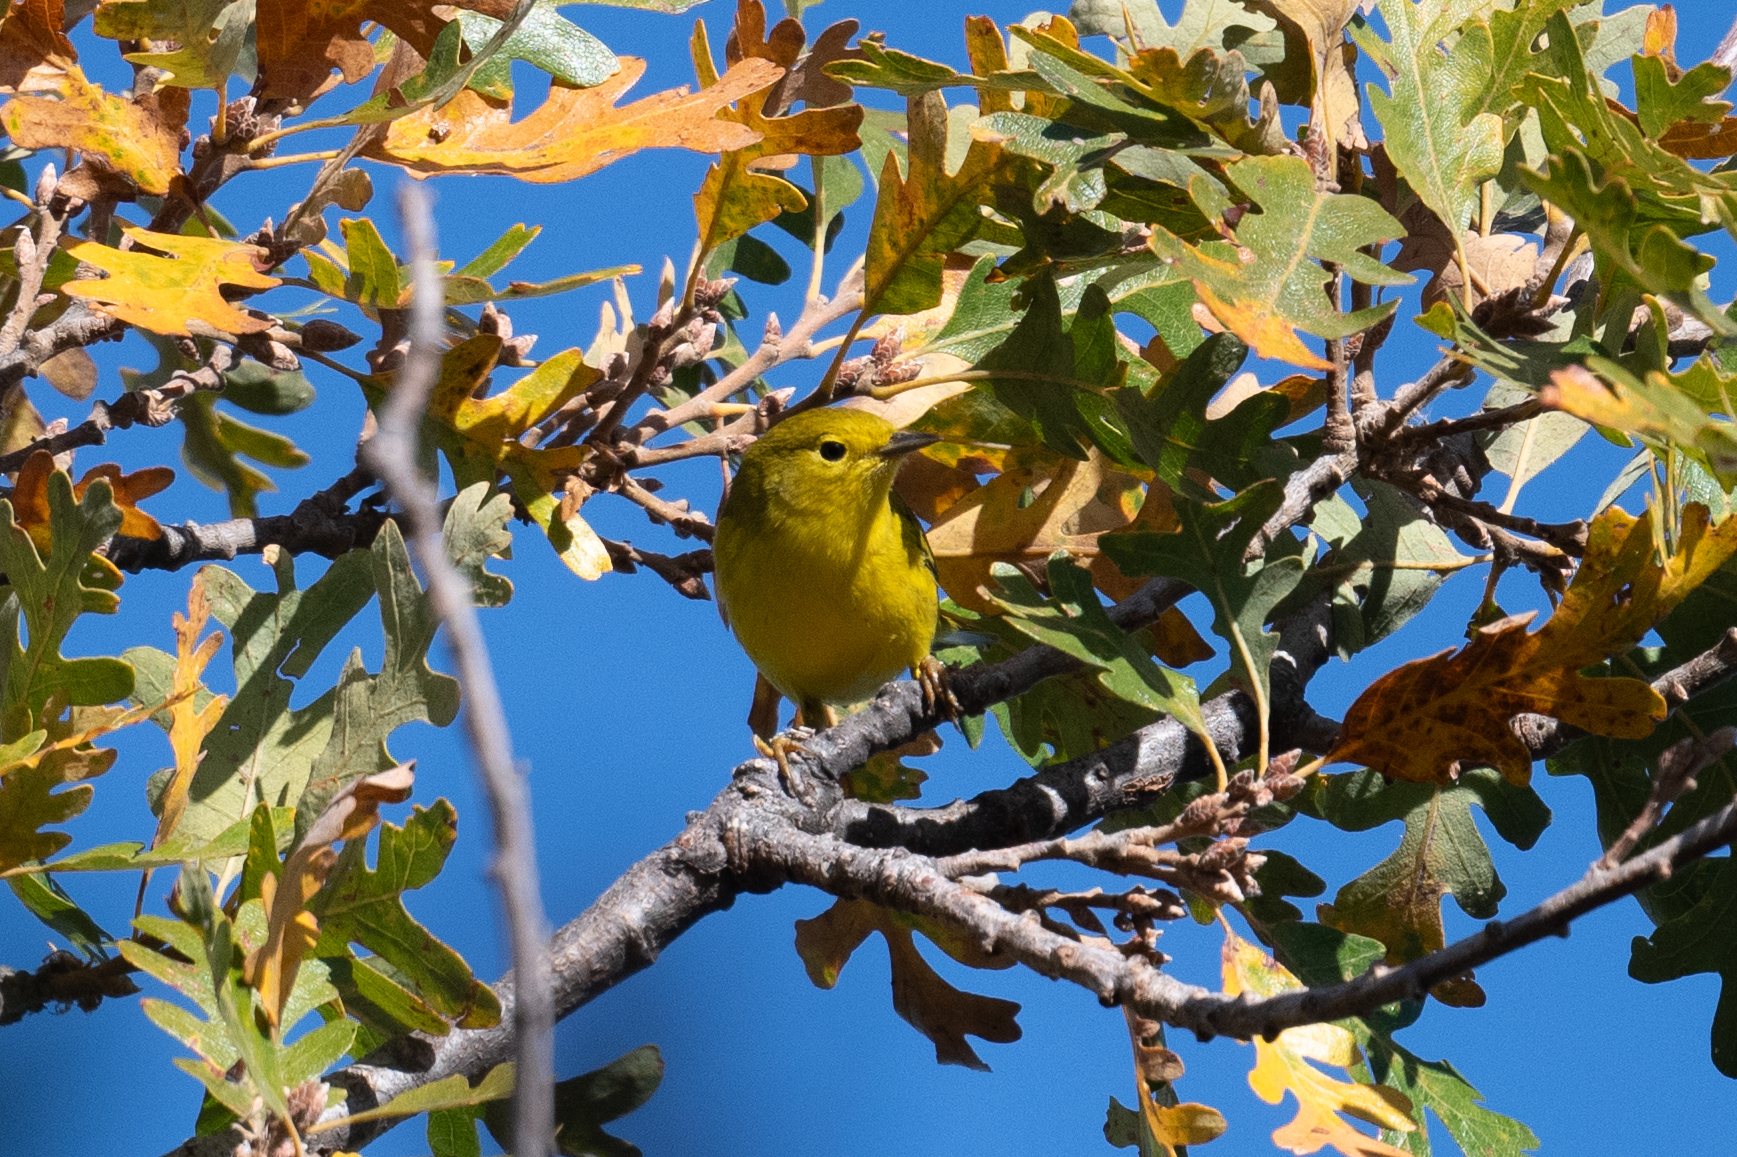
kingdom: Animalia
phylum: Chordata
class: Aves
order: Passeriformes
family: Parulidae
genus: Setophaga
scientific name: Setophaga petechia
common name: Yellow warbler
